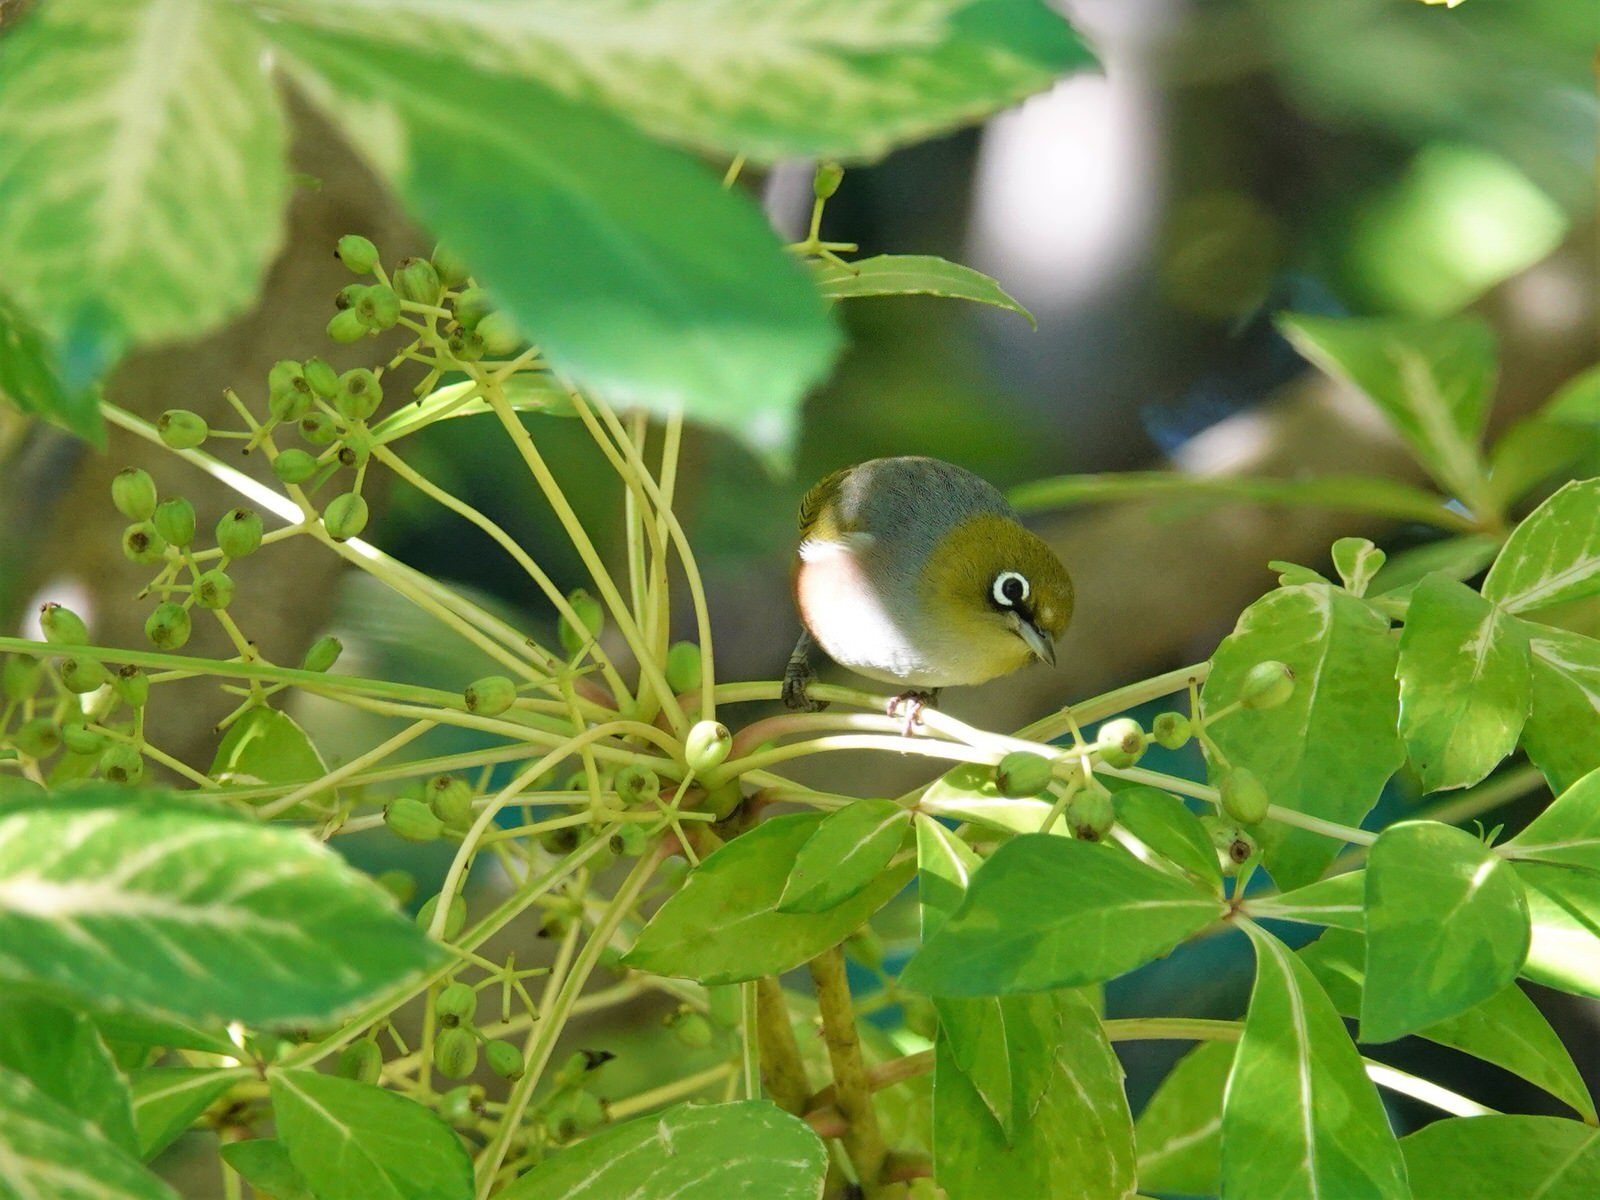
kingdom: Animalia
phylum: Chordata
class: Aves
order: Passeriformes
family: Zosteropidae
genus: Zosterops
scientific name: Zosterops lateralis
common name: Silvereye
